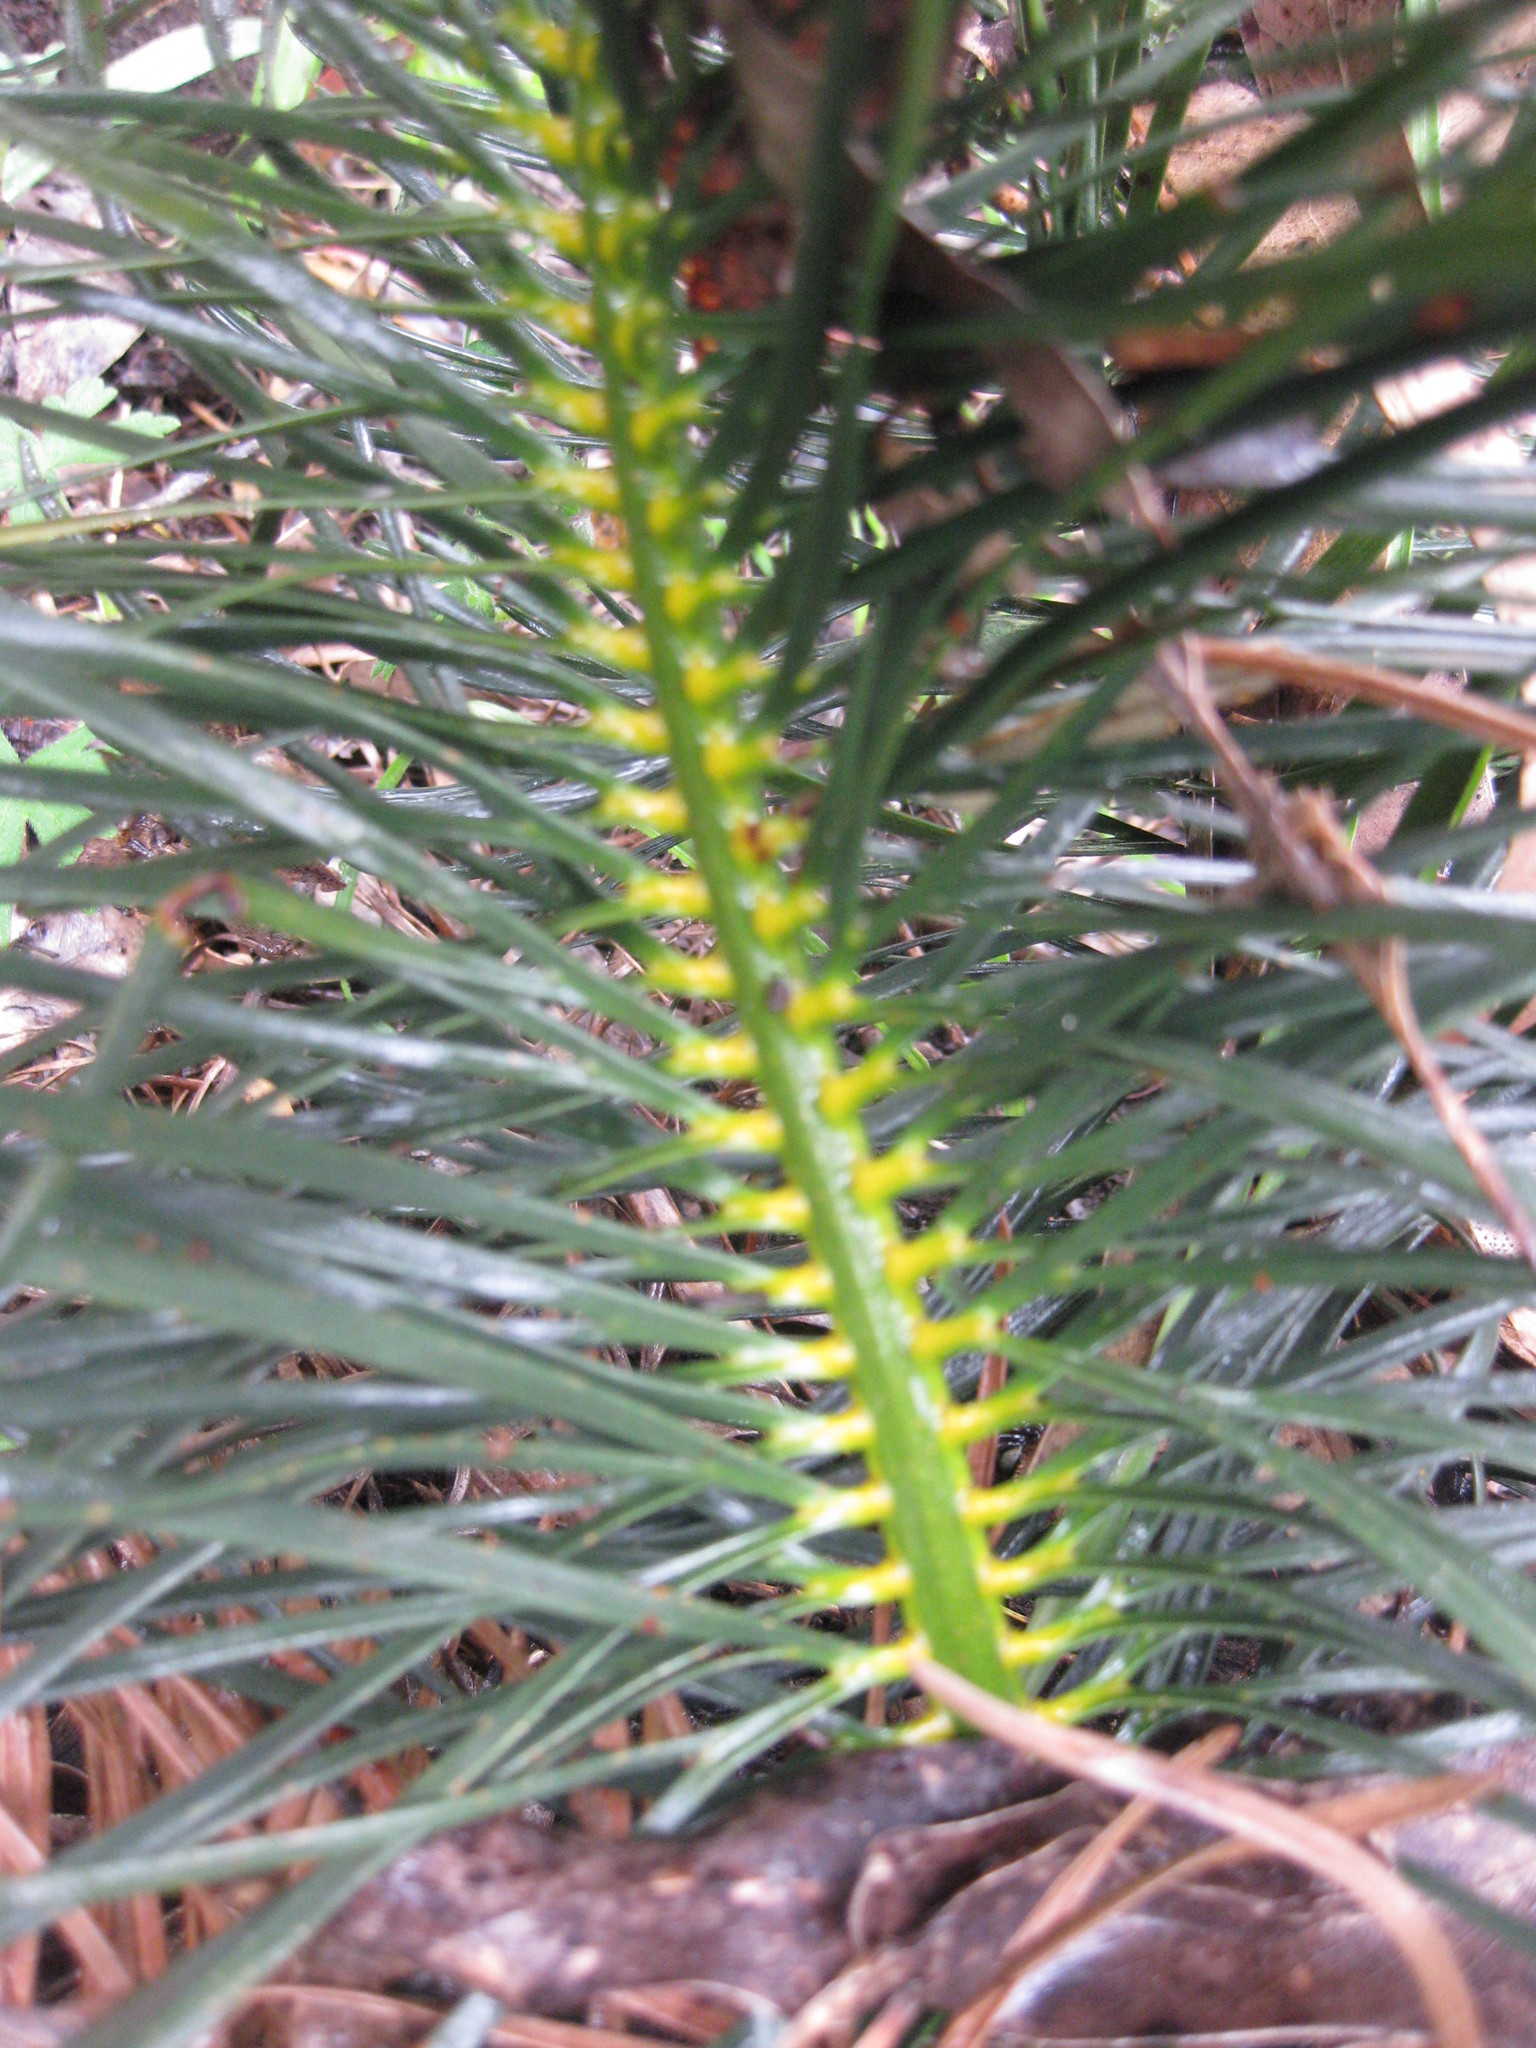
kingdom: Plantae
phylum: Tracheophyta
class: Cycadopsida
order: Cycadales
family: Zamiaceae
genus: Macrozamia
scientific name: Macrozamia stenomera
